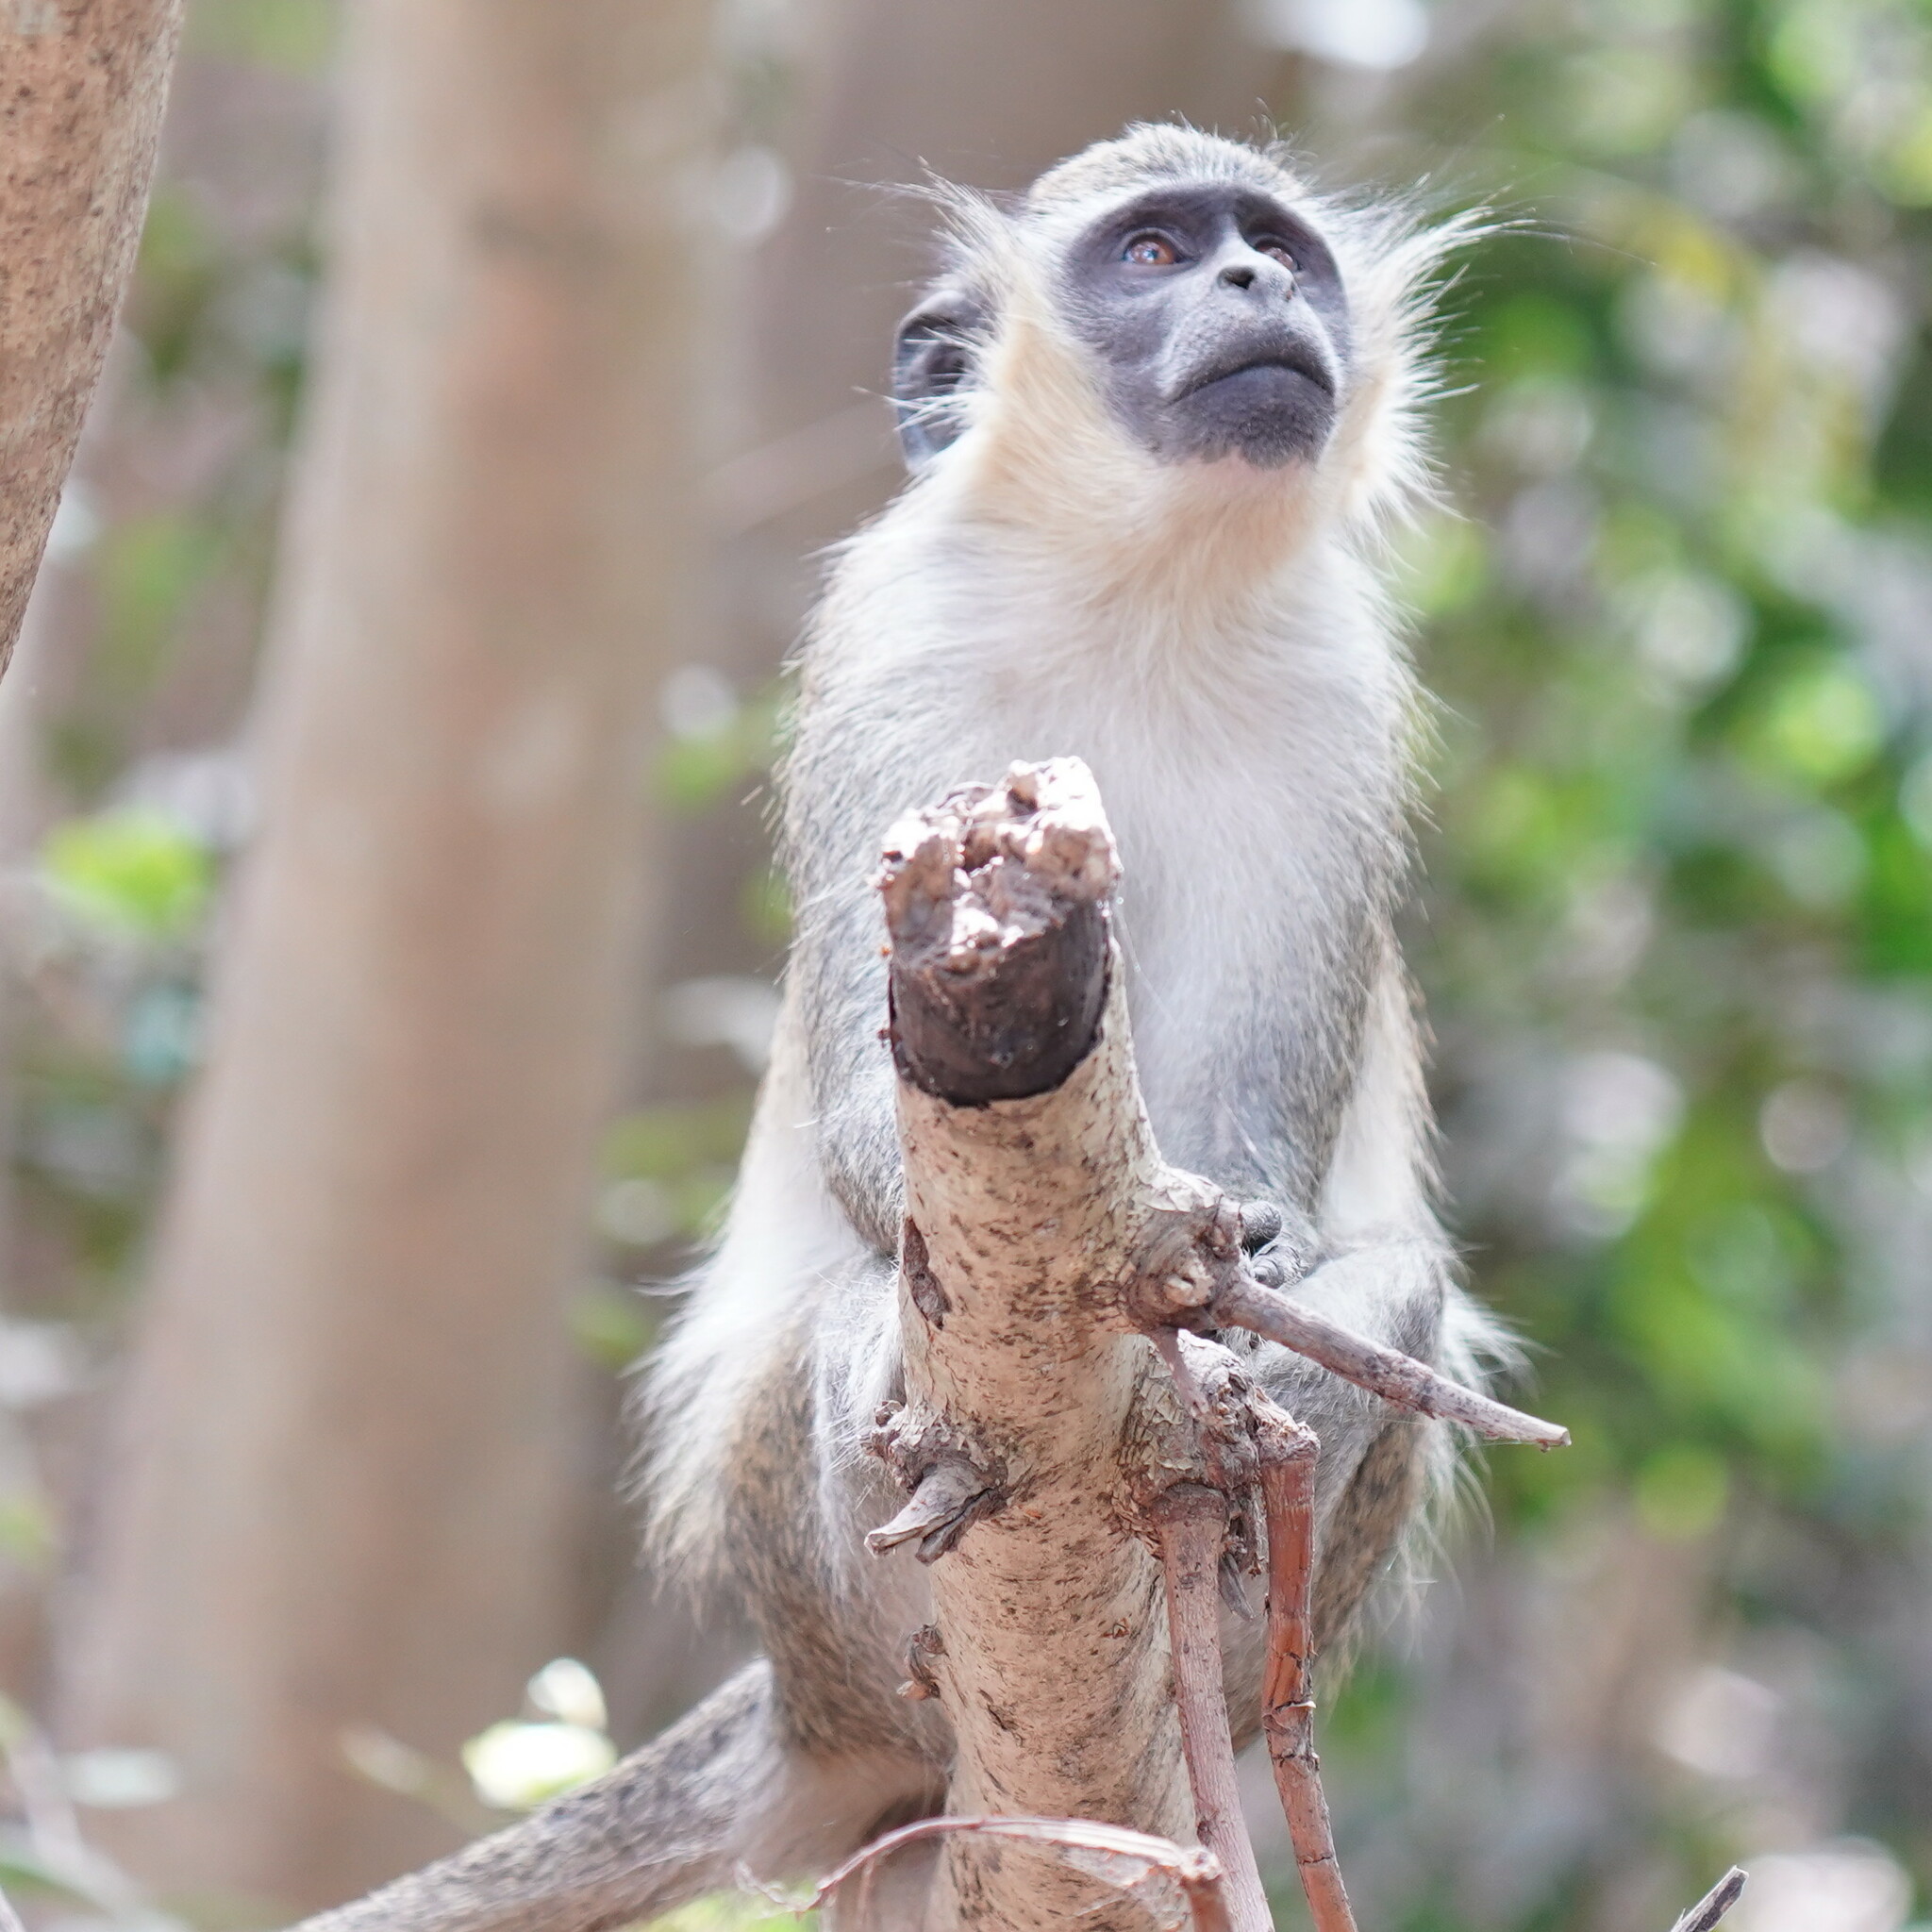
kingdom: Animalia
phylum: Chordata
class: Mammalia
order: Primates
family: Cercopithecidae
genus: Chlorocebus
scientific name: Chlorocebus sabaeus
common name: Green monkey
